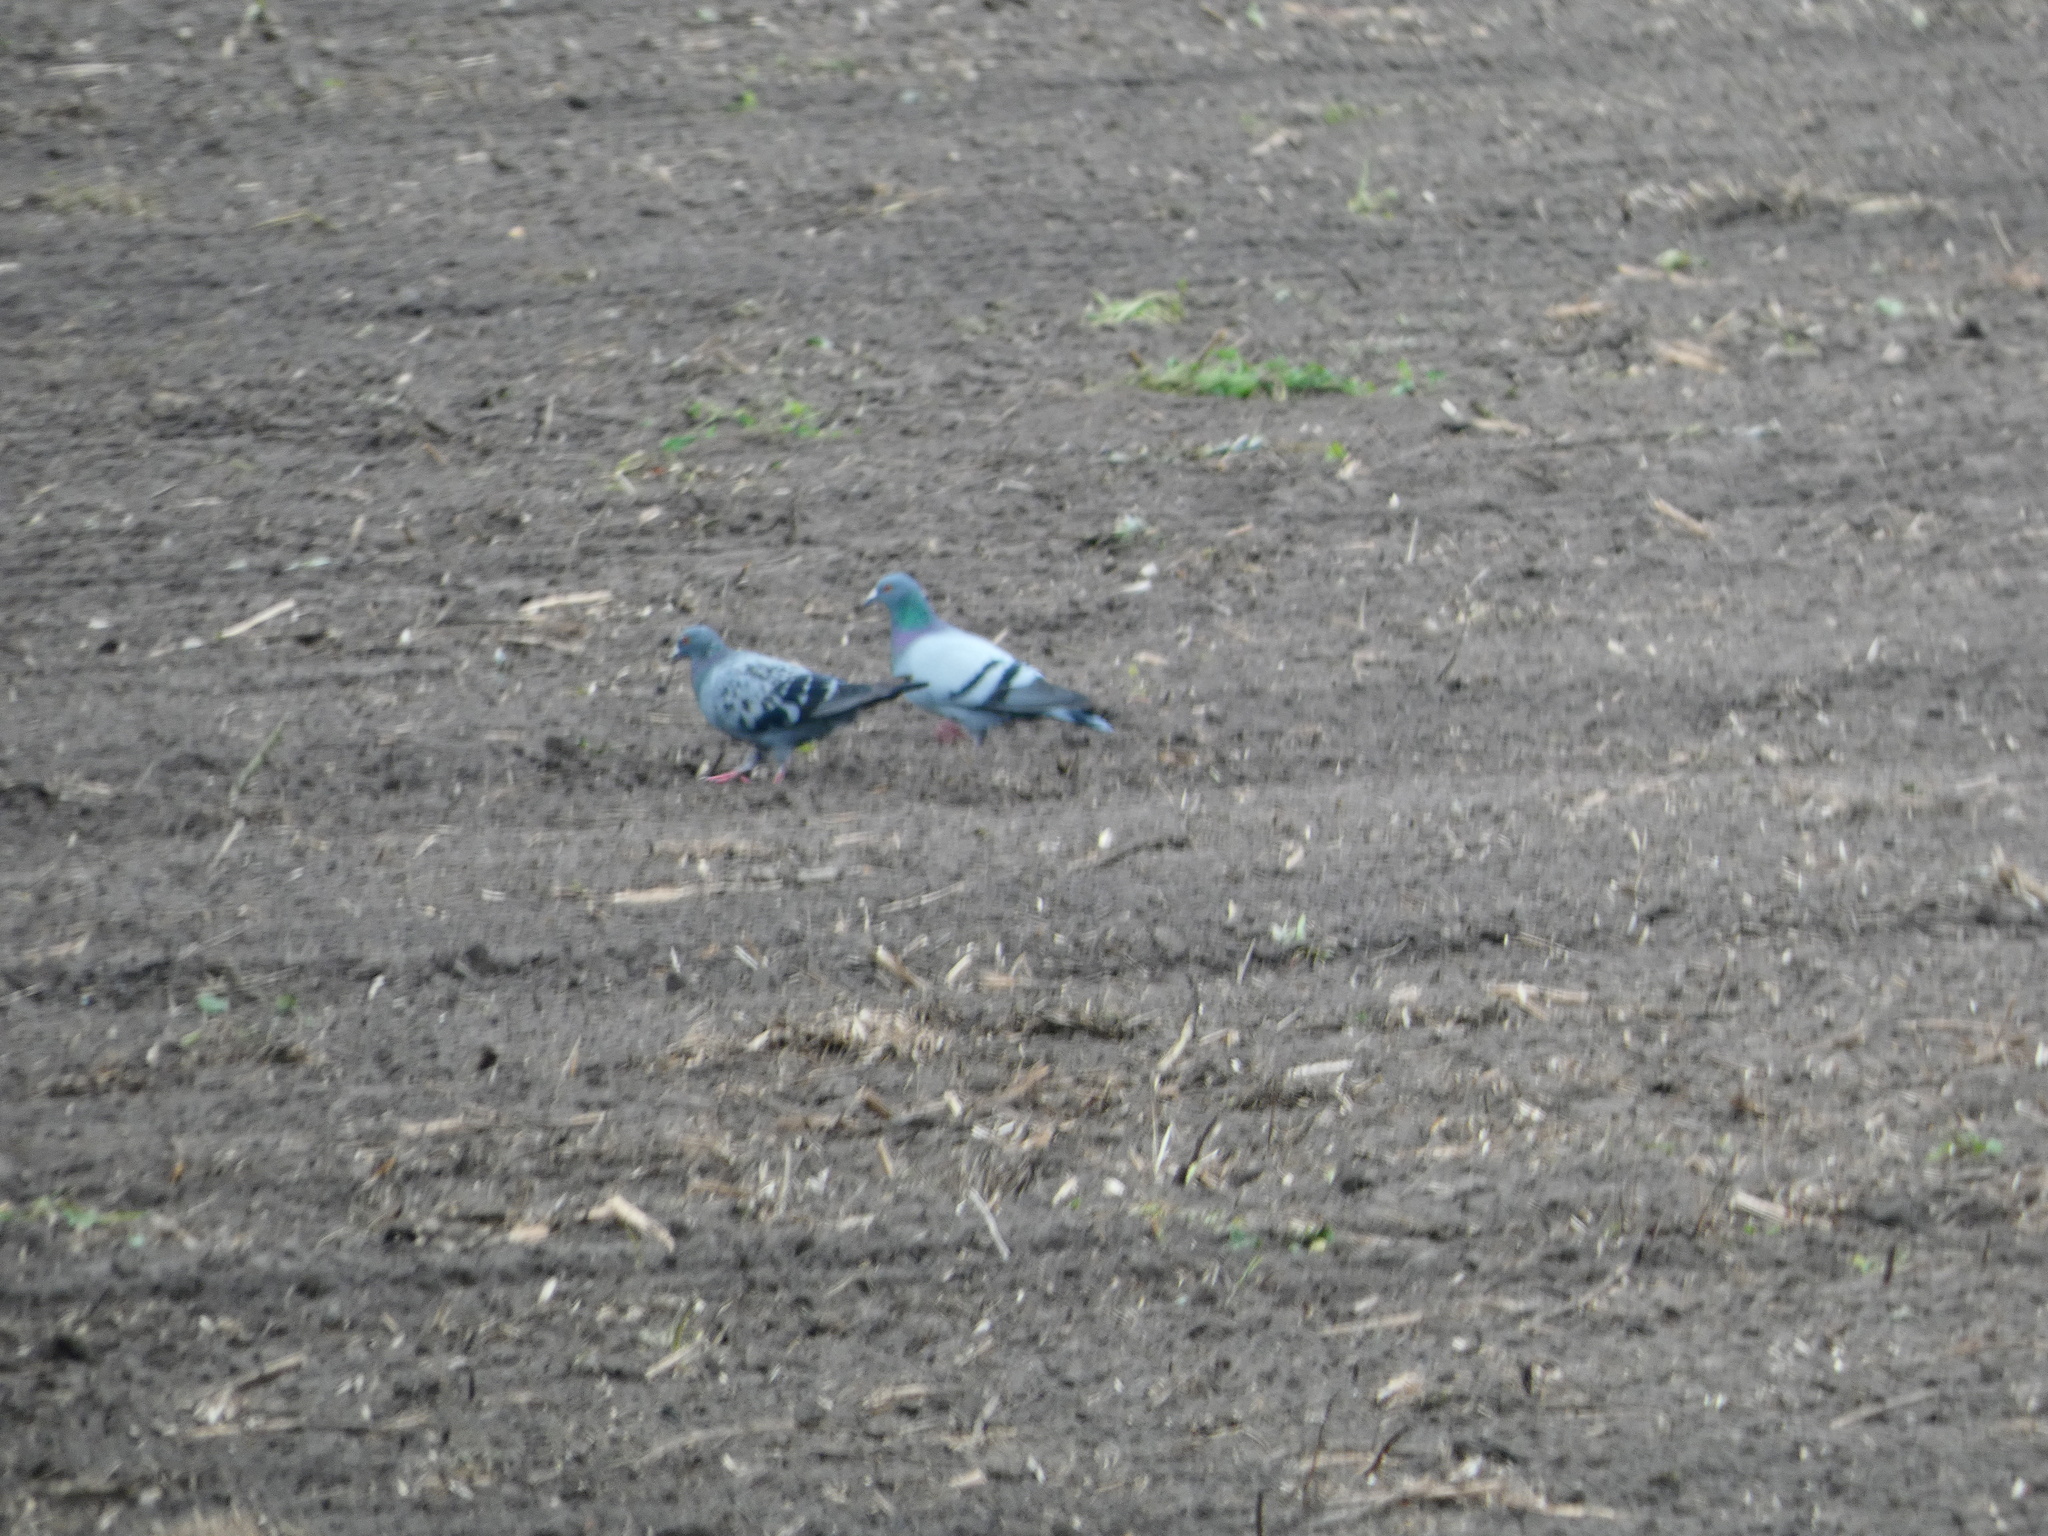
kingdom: Animalia
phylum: Chordata
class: Aves
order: Columbiformes
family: Columbidae
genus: Columba
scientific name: Columba livia
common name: Rock pigeon
